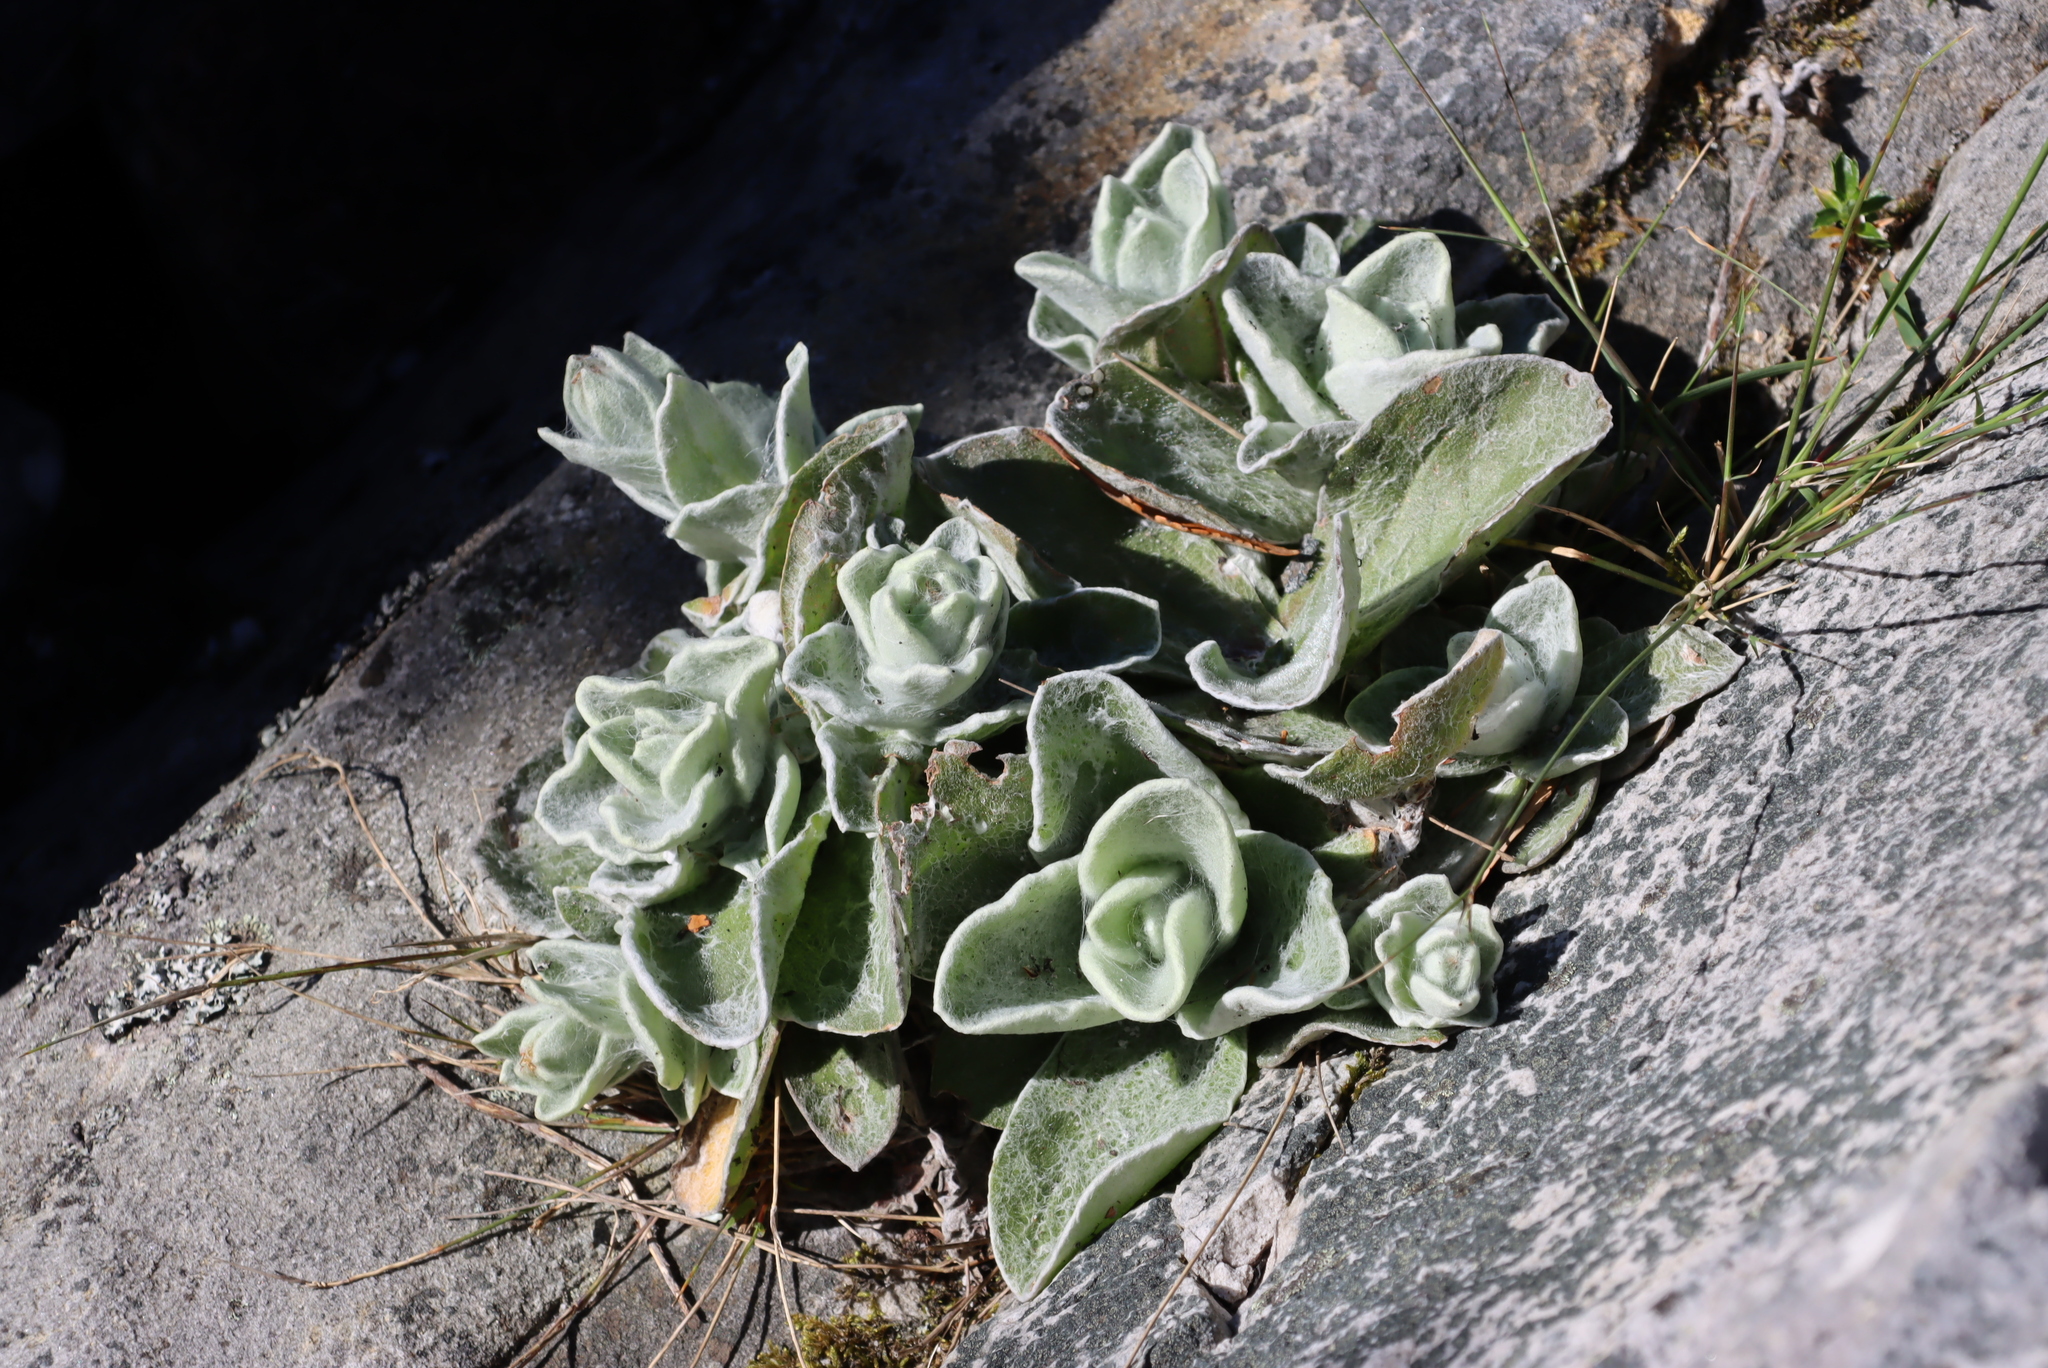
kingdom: Plantae
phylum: Tracheophyta
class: Magnoliopsida
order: Asterales
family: Asteraceae
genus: Helichrysum
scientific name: Helichrysum grandiflorum
